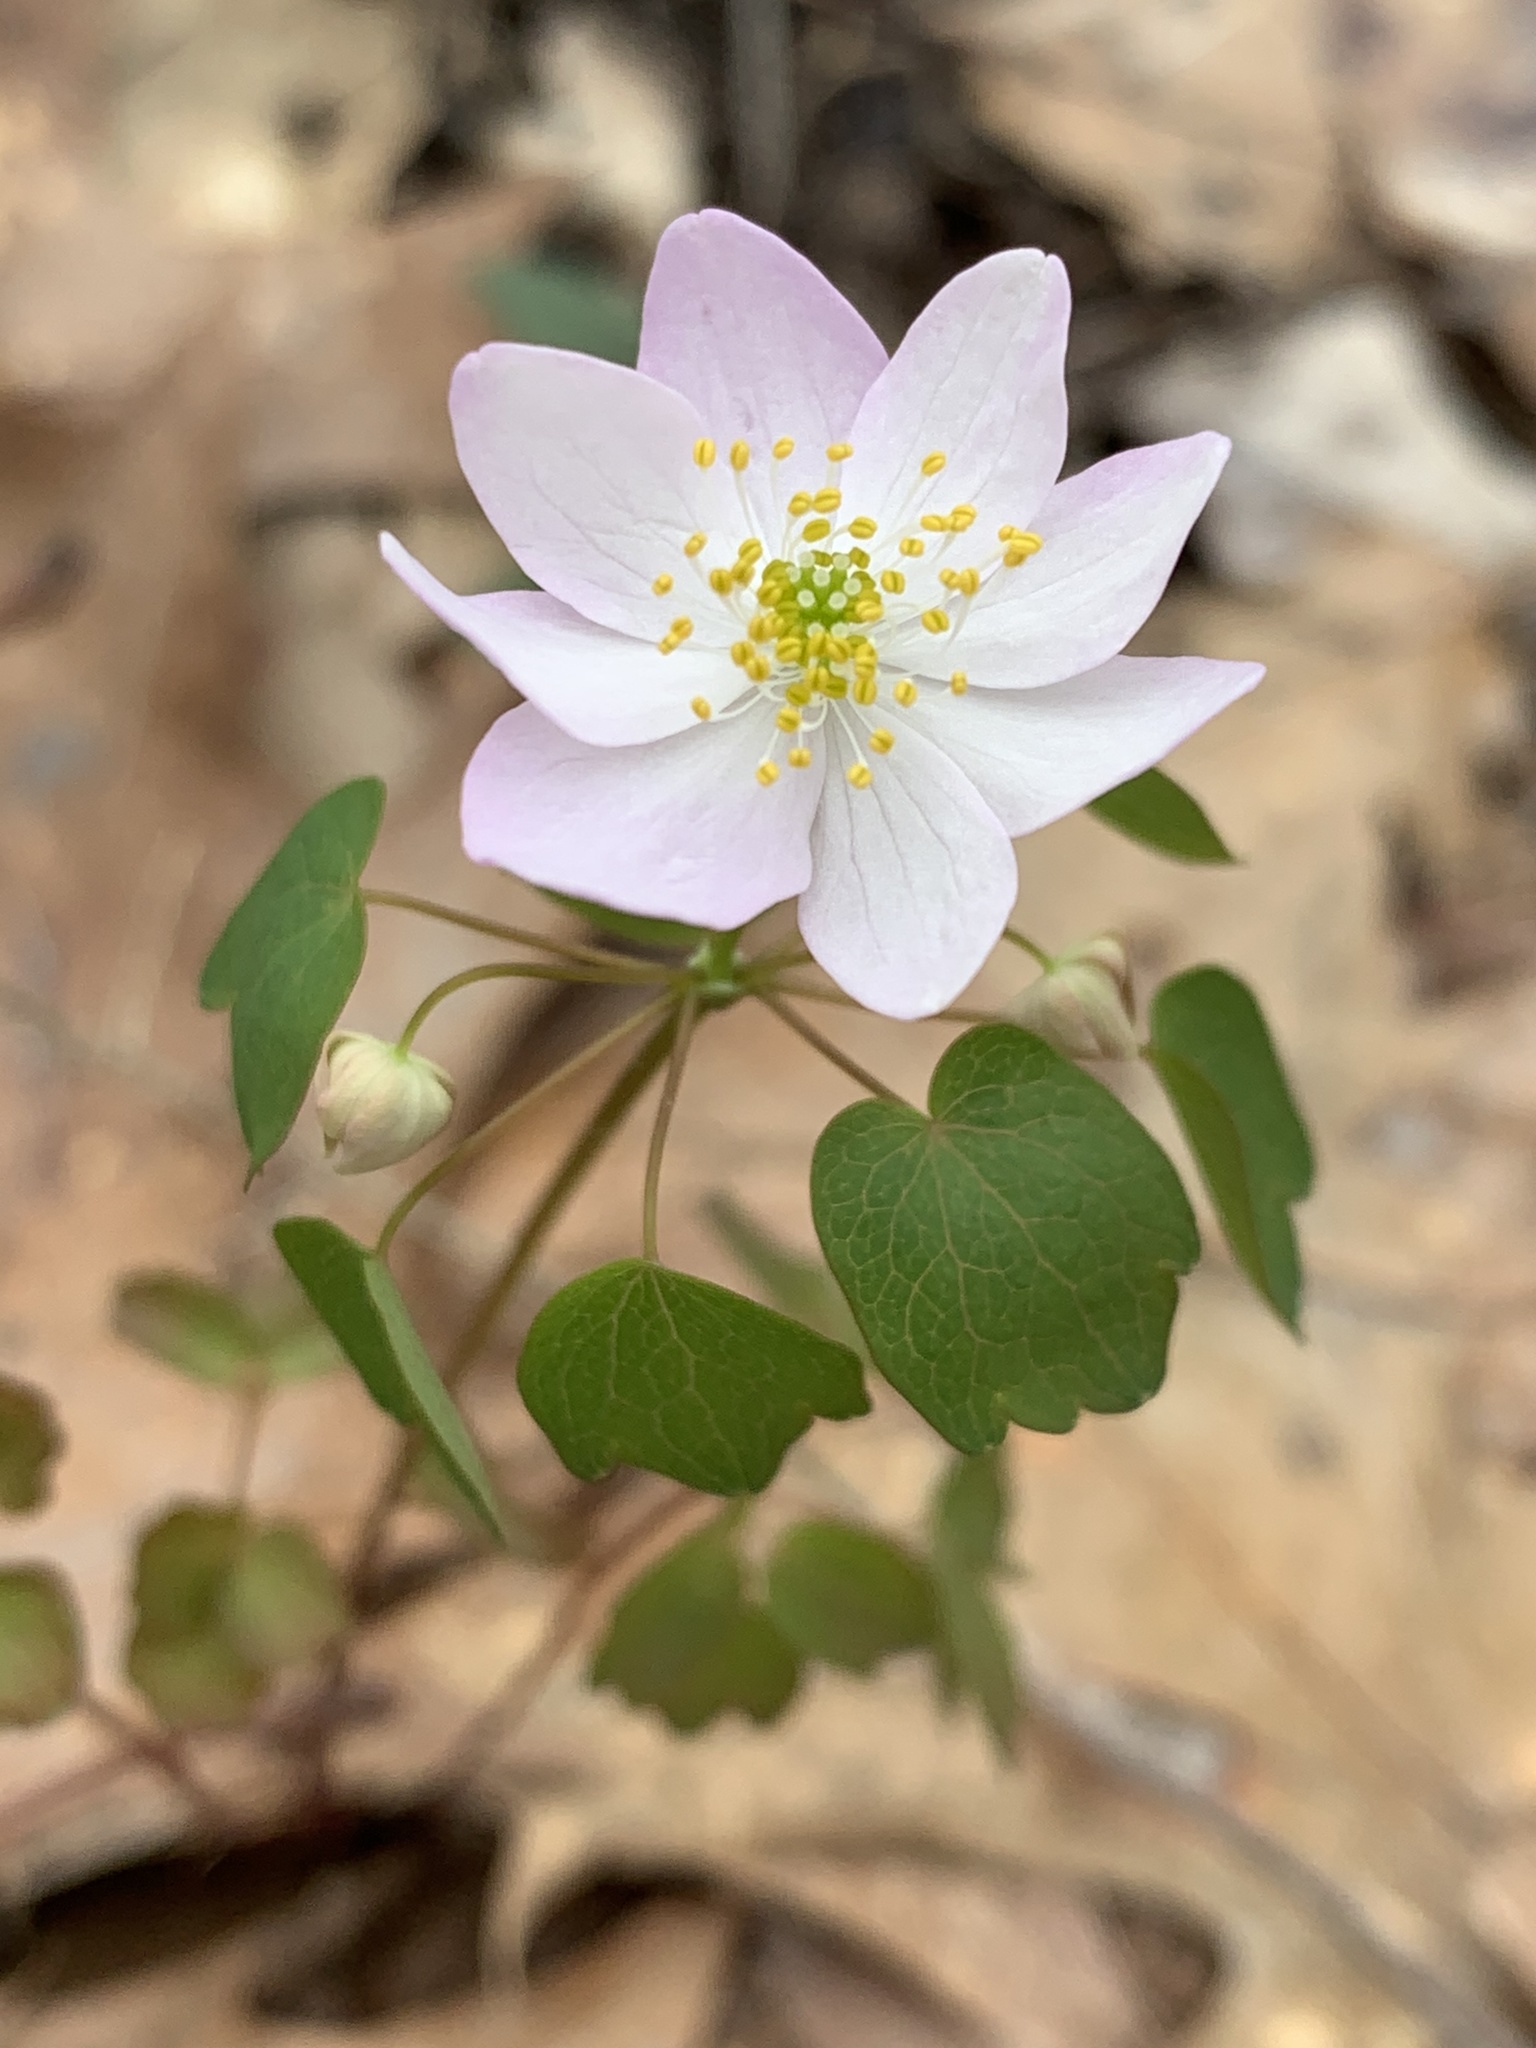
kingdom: Plantae
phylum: Tracheophyta
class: Magnoliopsida
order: Ranunculales
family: Ranunculaceae
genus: Thalictrum
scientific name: Thalictrum thalictroides
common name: Rue-anemone
